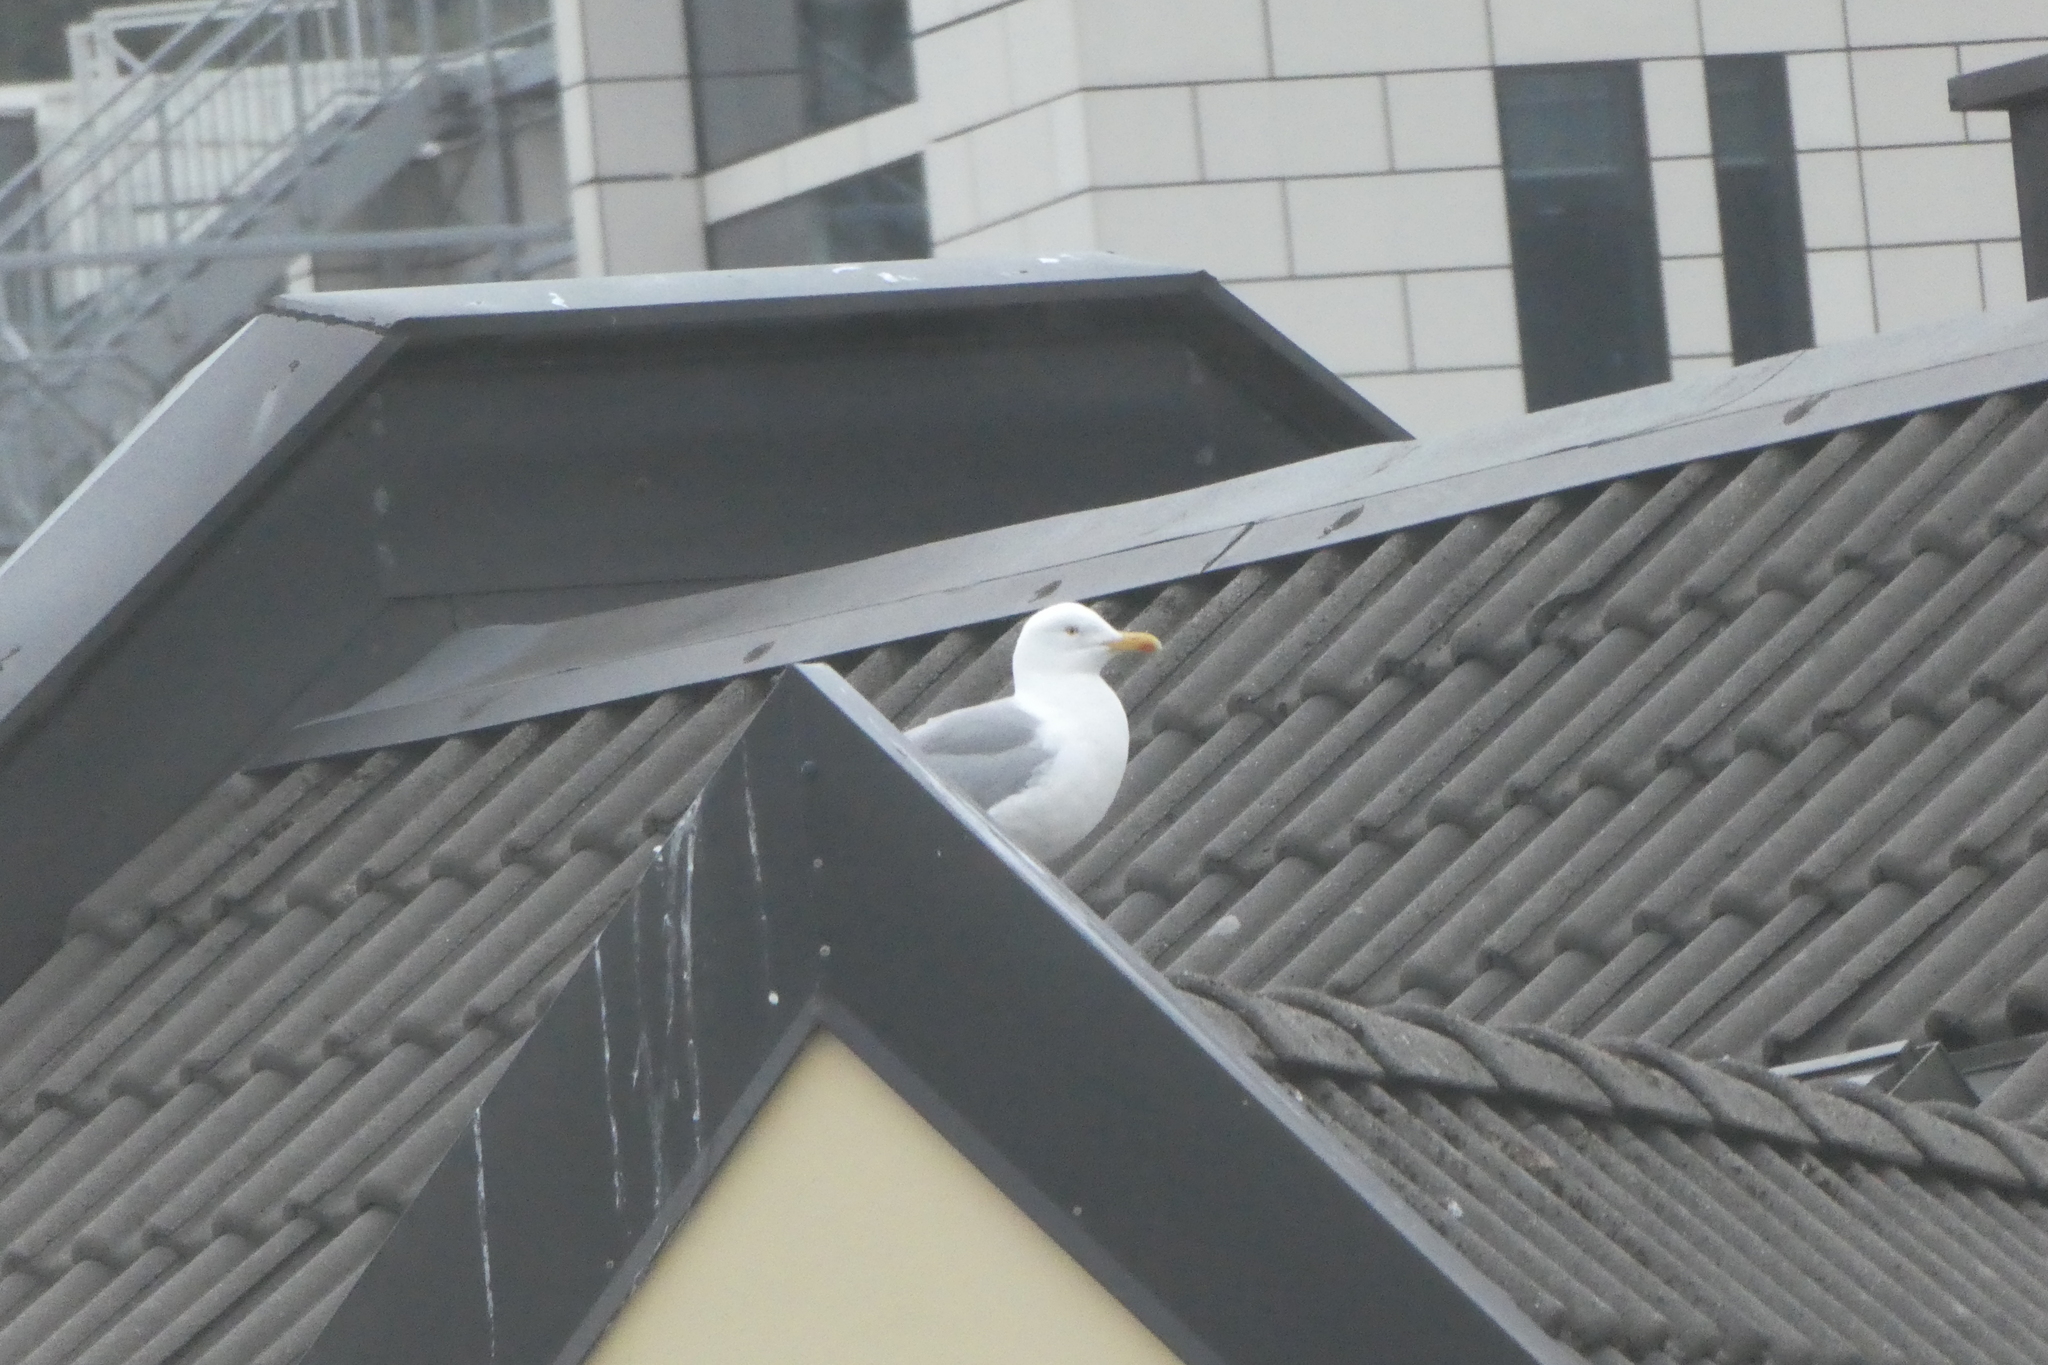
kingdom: Animalia
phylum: Chordata
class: Aves
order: Charadriiformes
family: Laridae
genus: Larus
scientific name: Larus argentatus
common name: Herring gull
